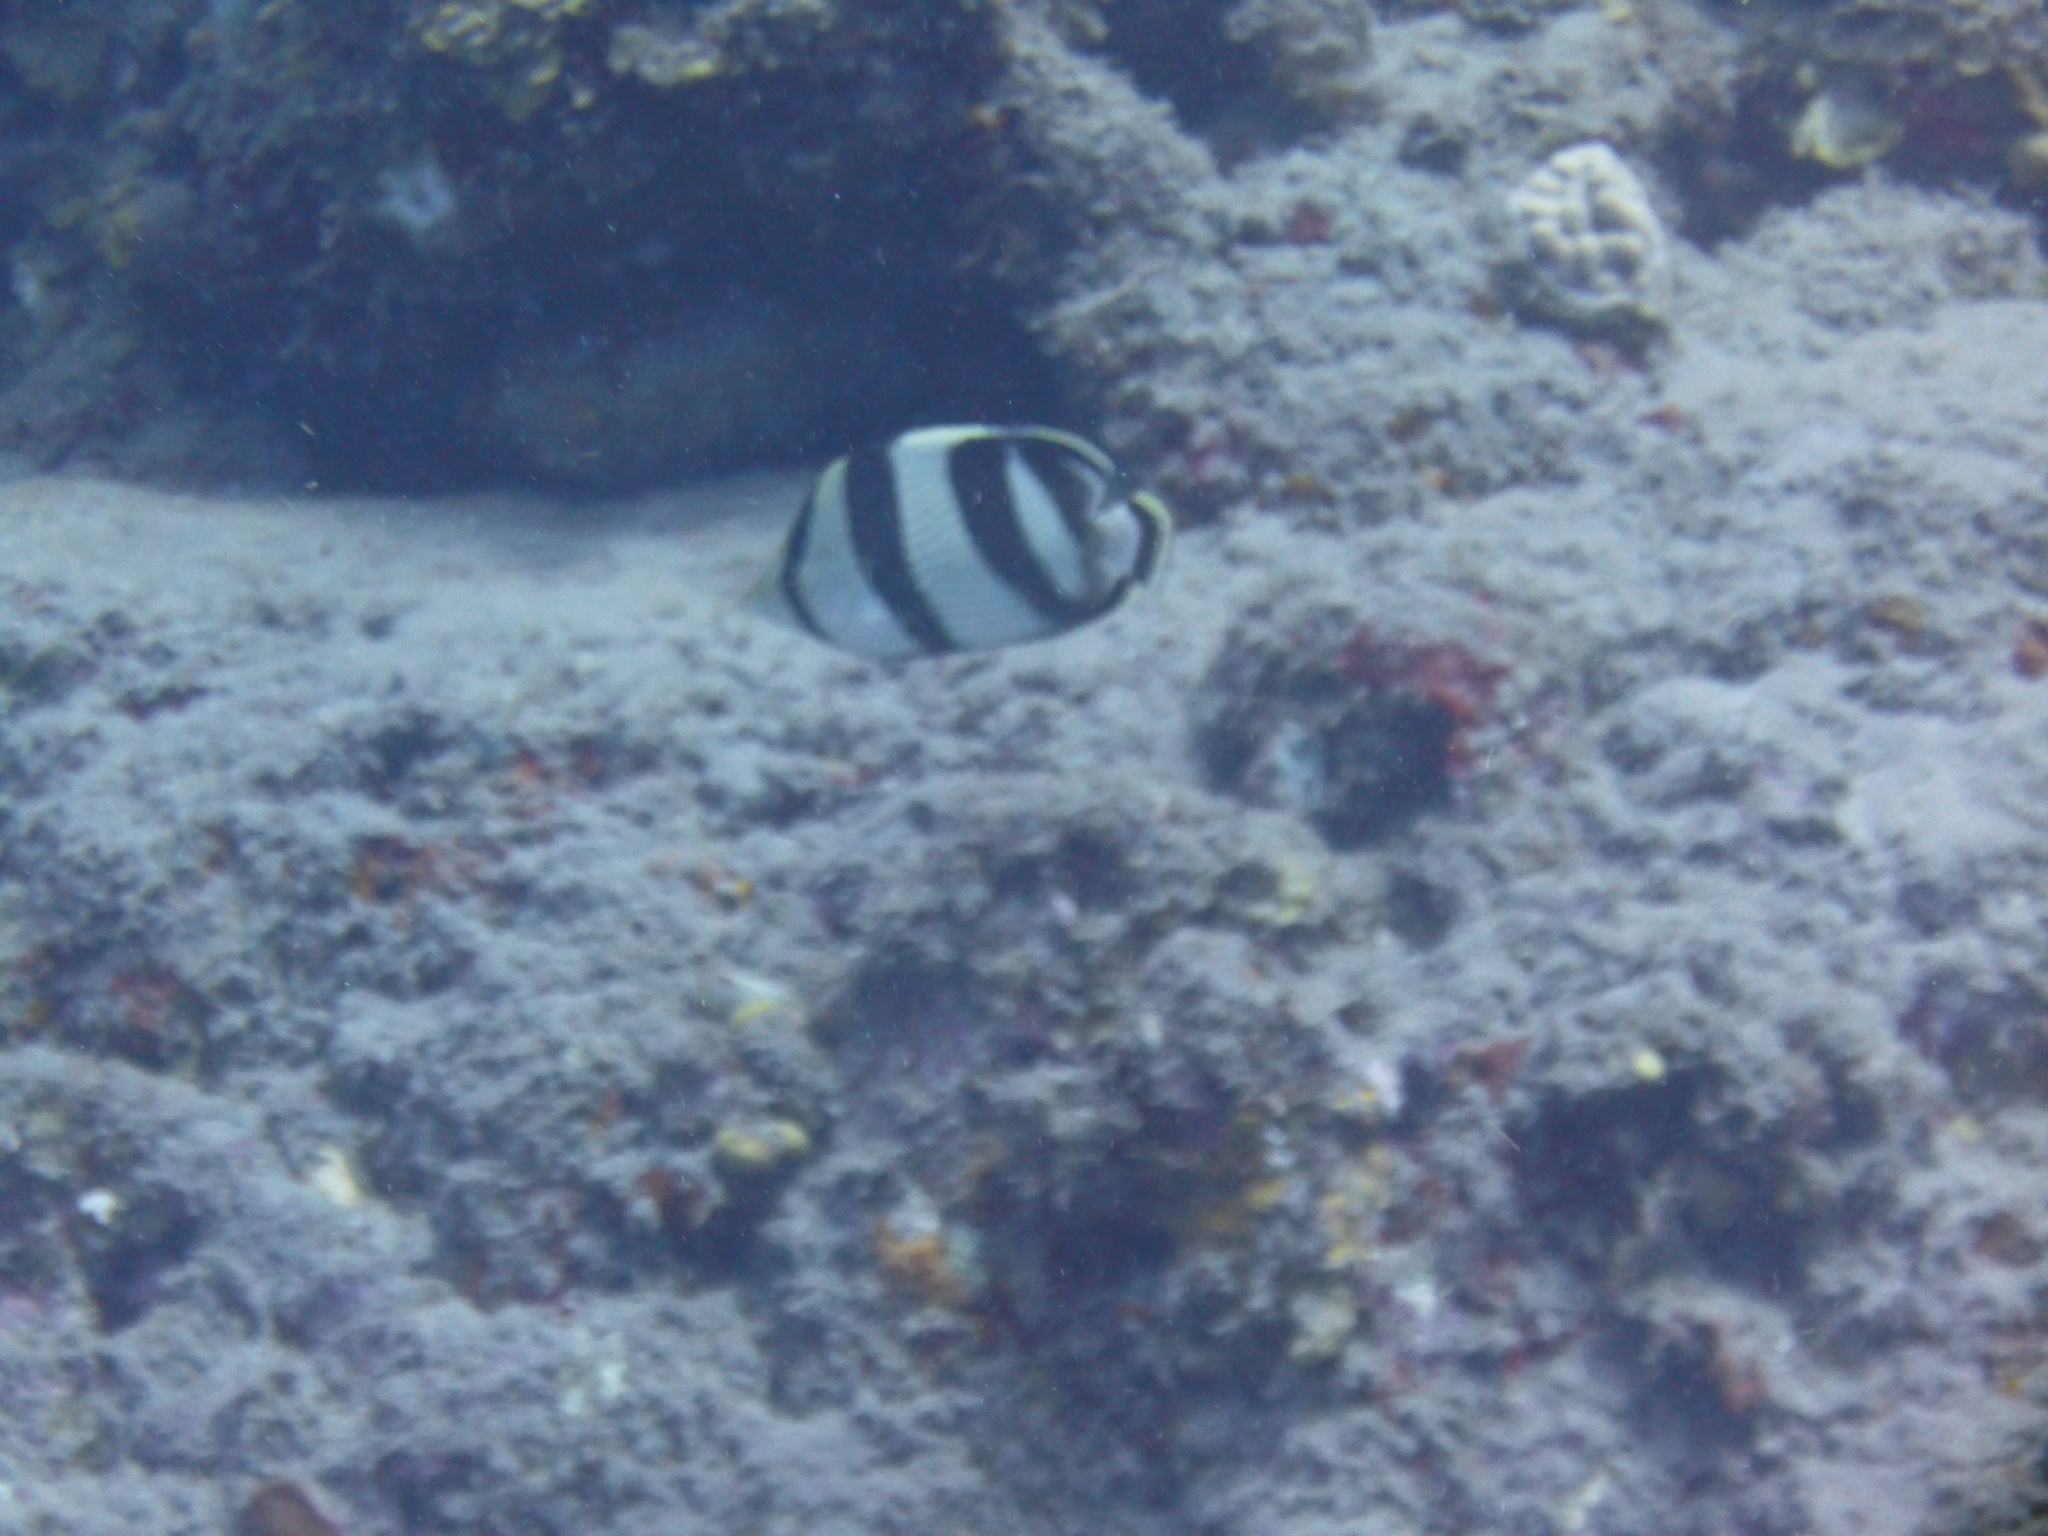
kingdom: Animalia
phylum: Chordata
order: Perciformes
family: Chaetodontidae
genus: Chaetodon
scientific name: Chaetodon striatus
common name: Banded butterflyfish
